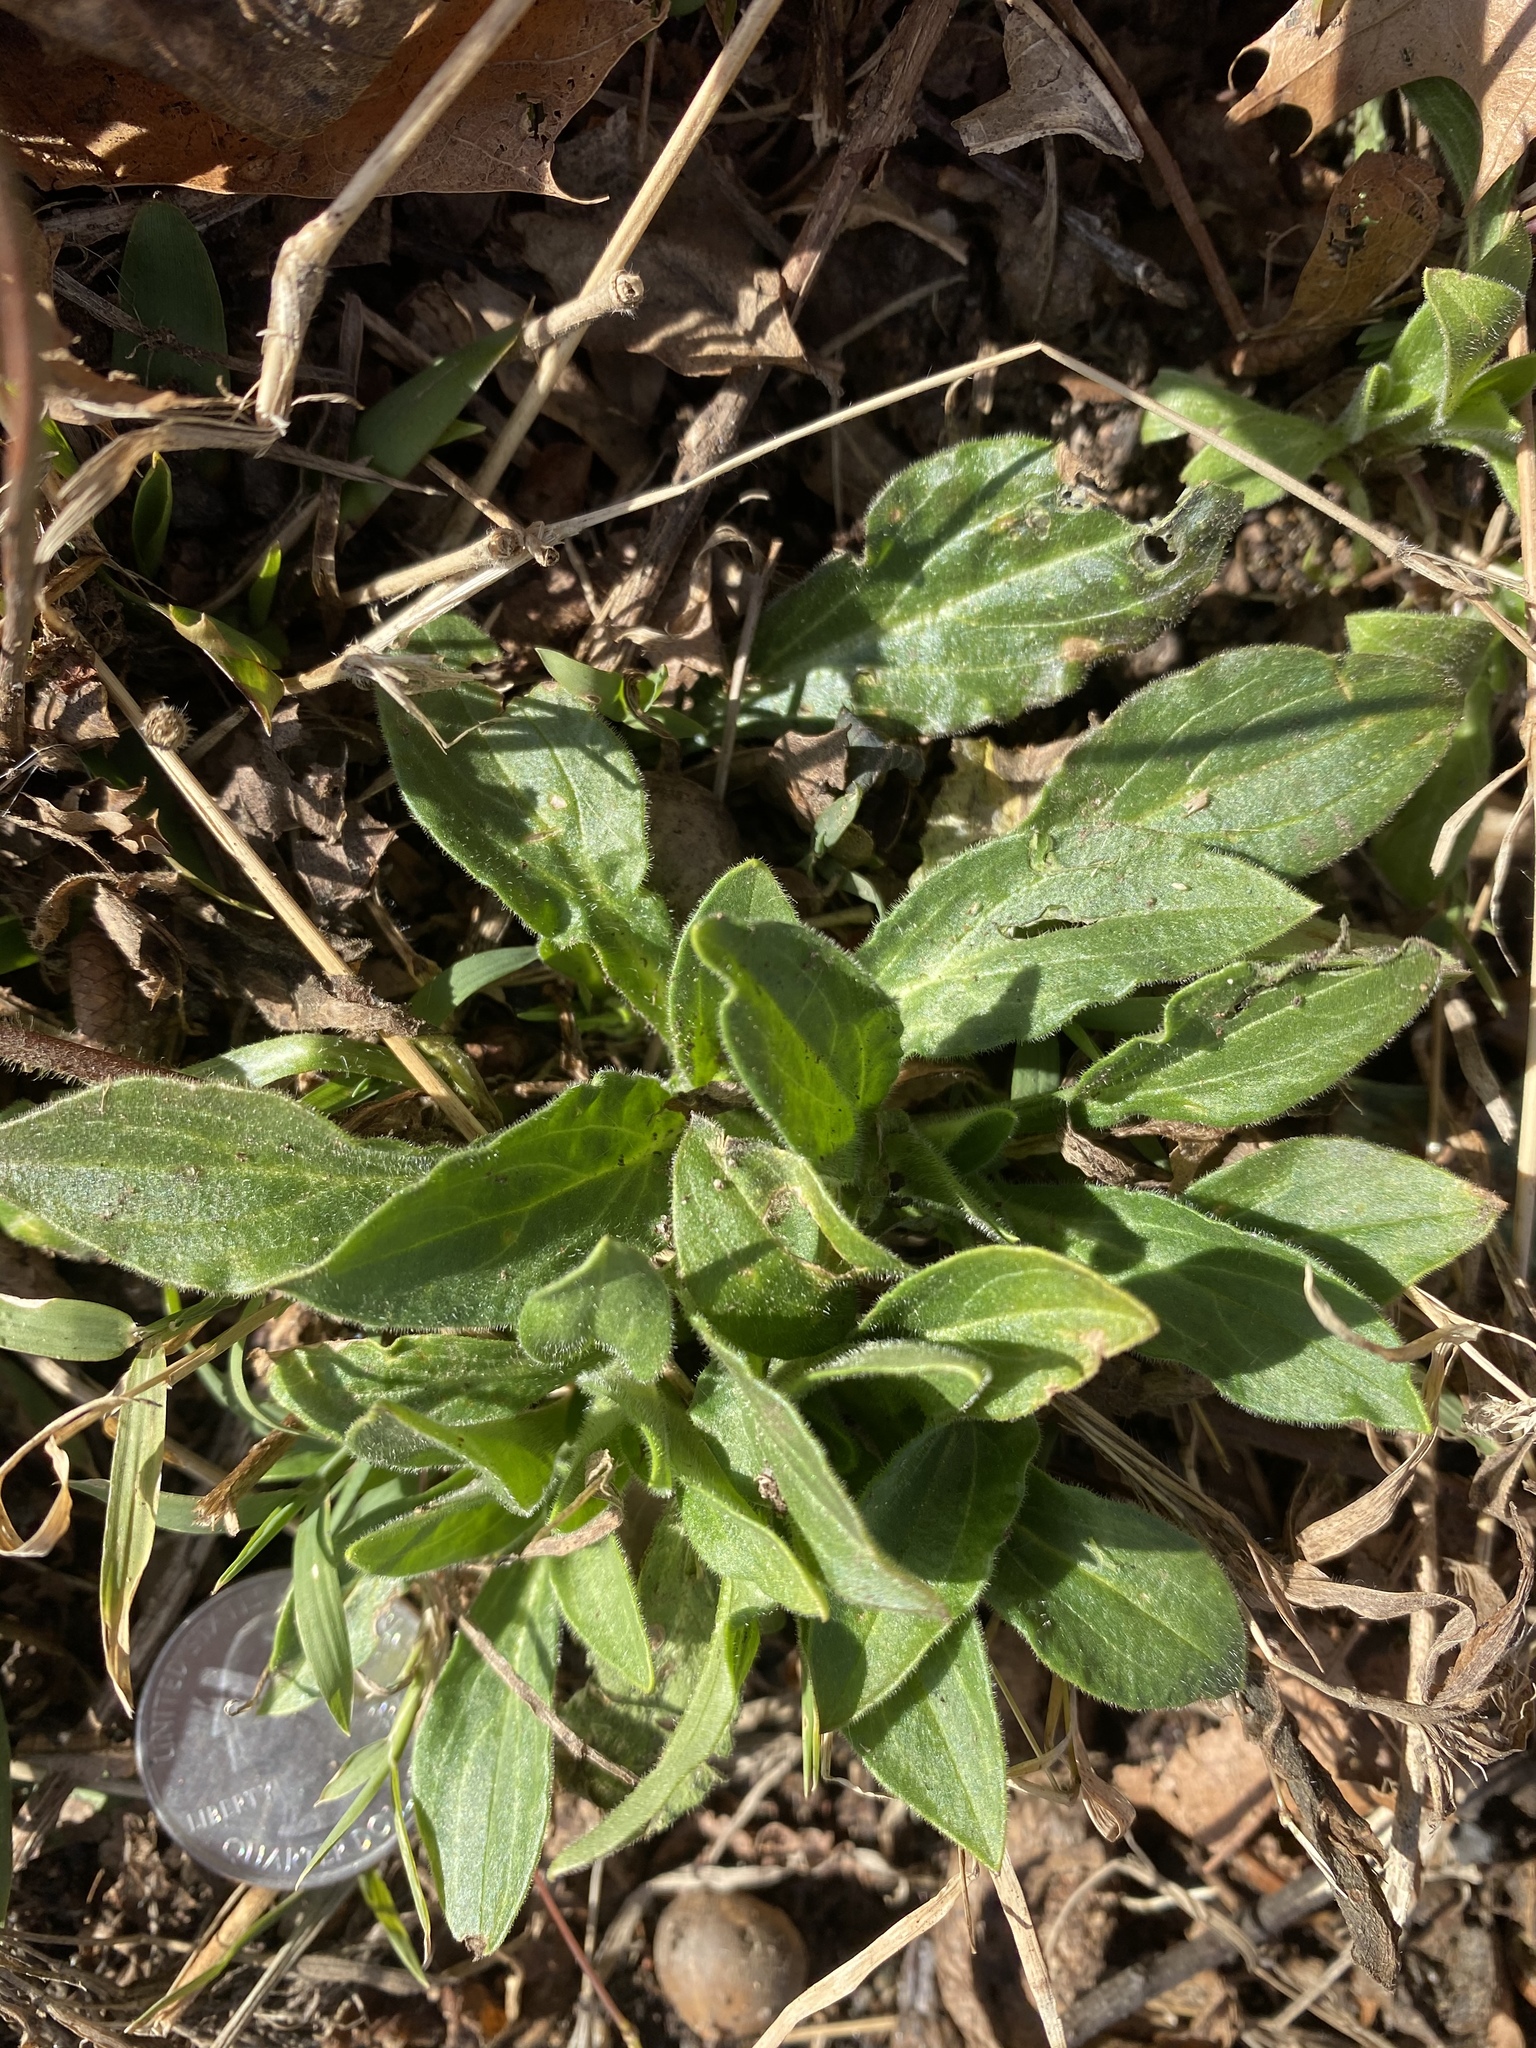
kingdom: Plantae
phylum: Tracheophyta
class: Magnoliopsida
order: Caryophyllales
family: Caryophyllaceae
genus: Silene
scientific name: Silene latifolia
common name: White campion
